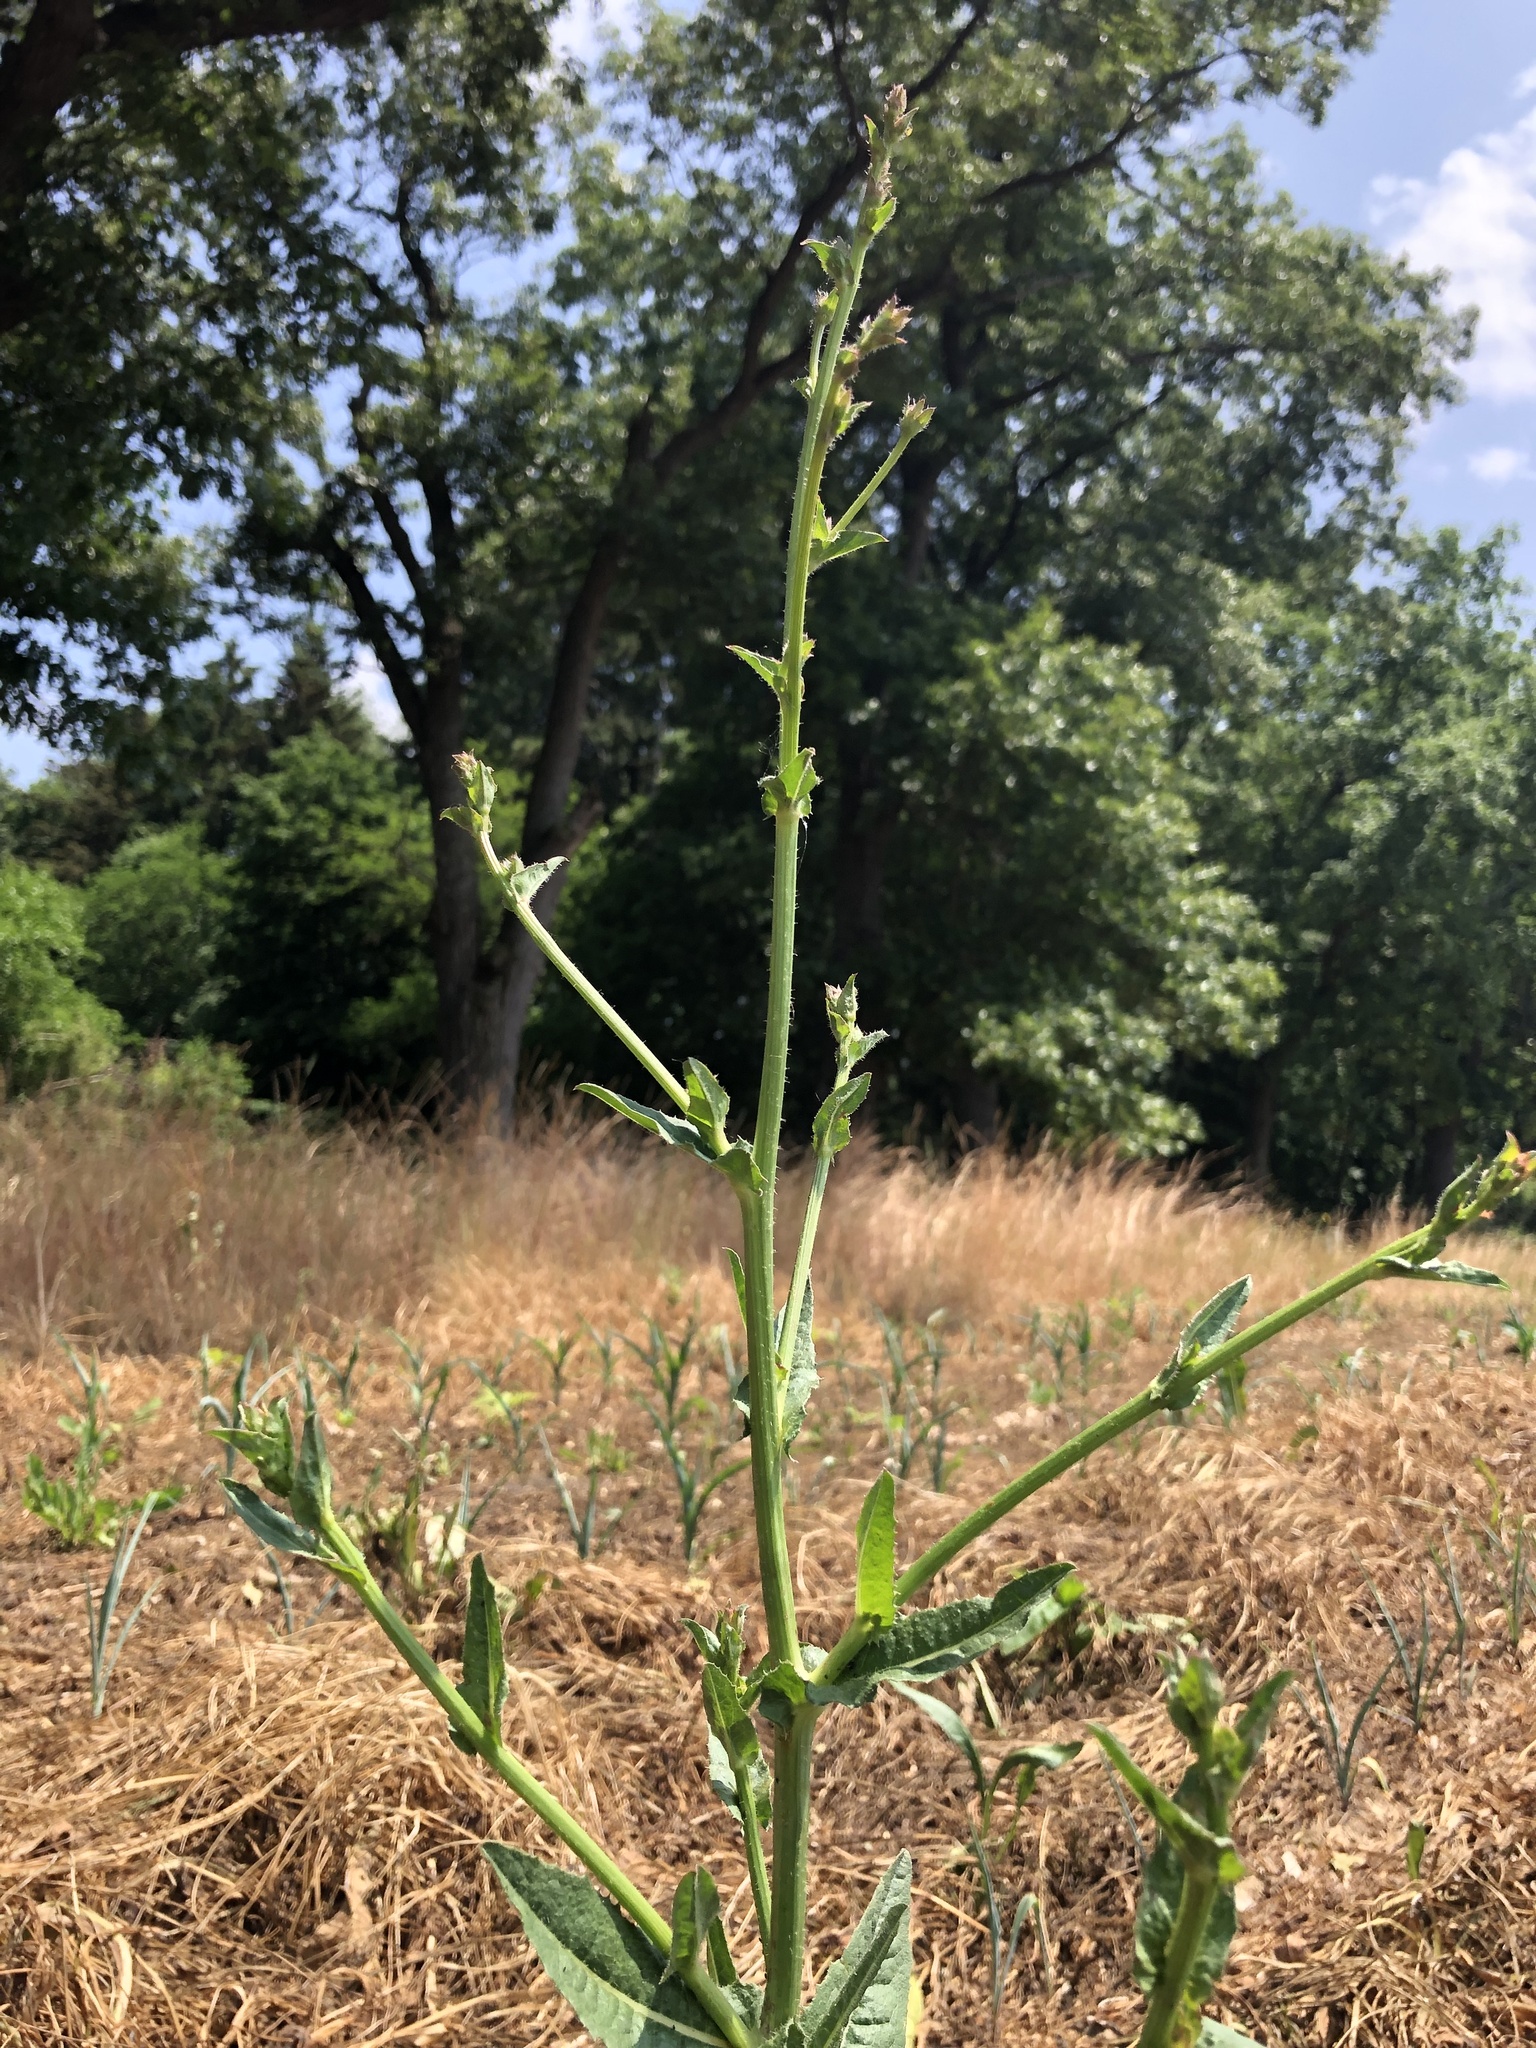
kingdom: Plantae
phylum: Tracheophyta
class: Magnoliopsida
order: Asterales
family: Asteraceae
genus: Cichorium
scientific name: Cichorium intybus
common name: Chicory
